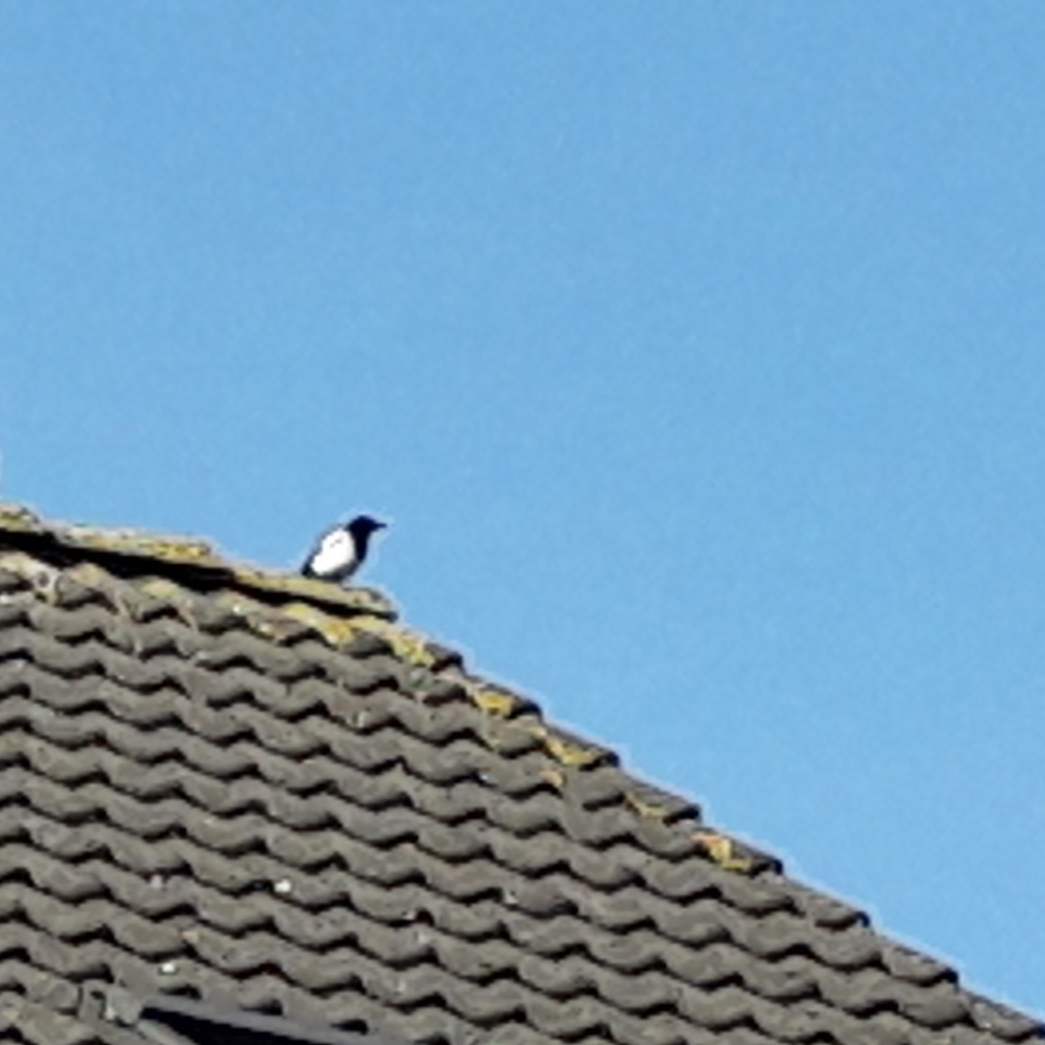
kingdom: Animalia
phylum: Chordata
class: Aves
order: Passeriformes
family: Corvidae
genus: Pica
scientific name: Pica pica
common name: Eurasian magpie
